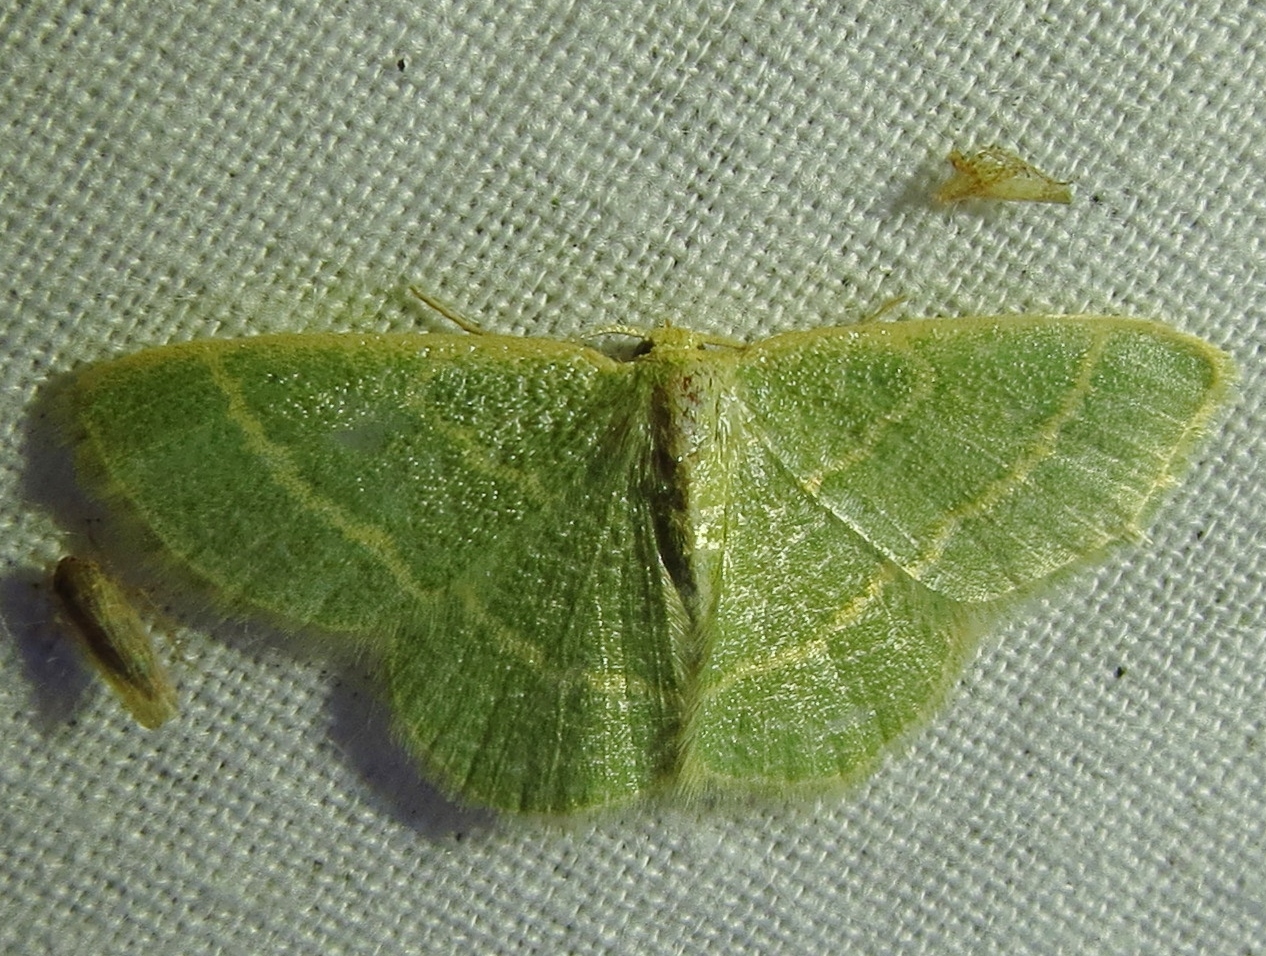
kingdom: Animalia
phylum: Arthropoda
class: Insecta
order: Lepidoptera
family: Geometridae
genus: Chlorochlamys
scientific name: Chlorochlamys chloroleucaria
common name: Blackberry looper
